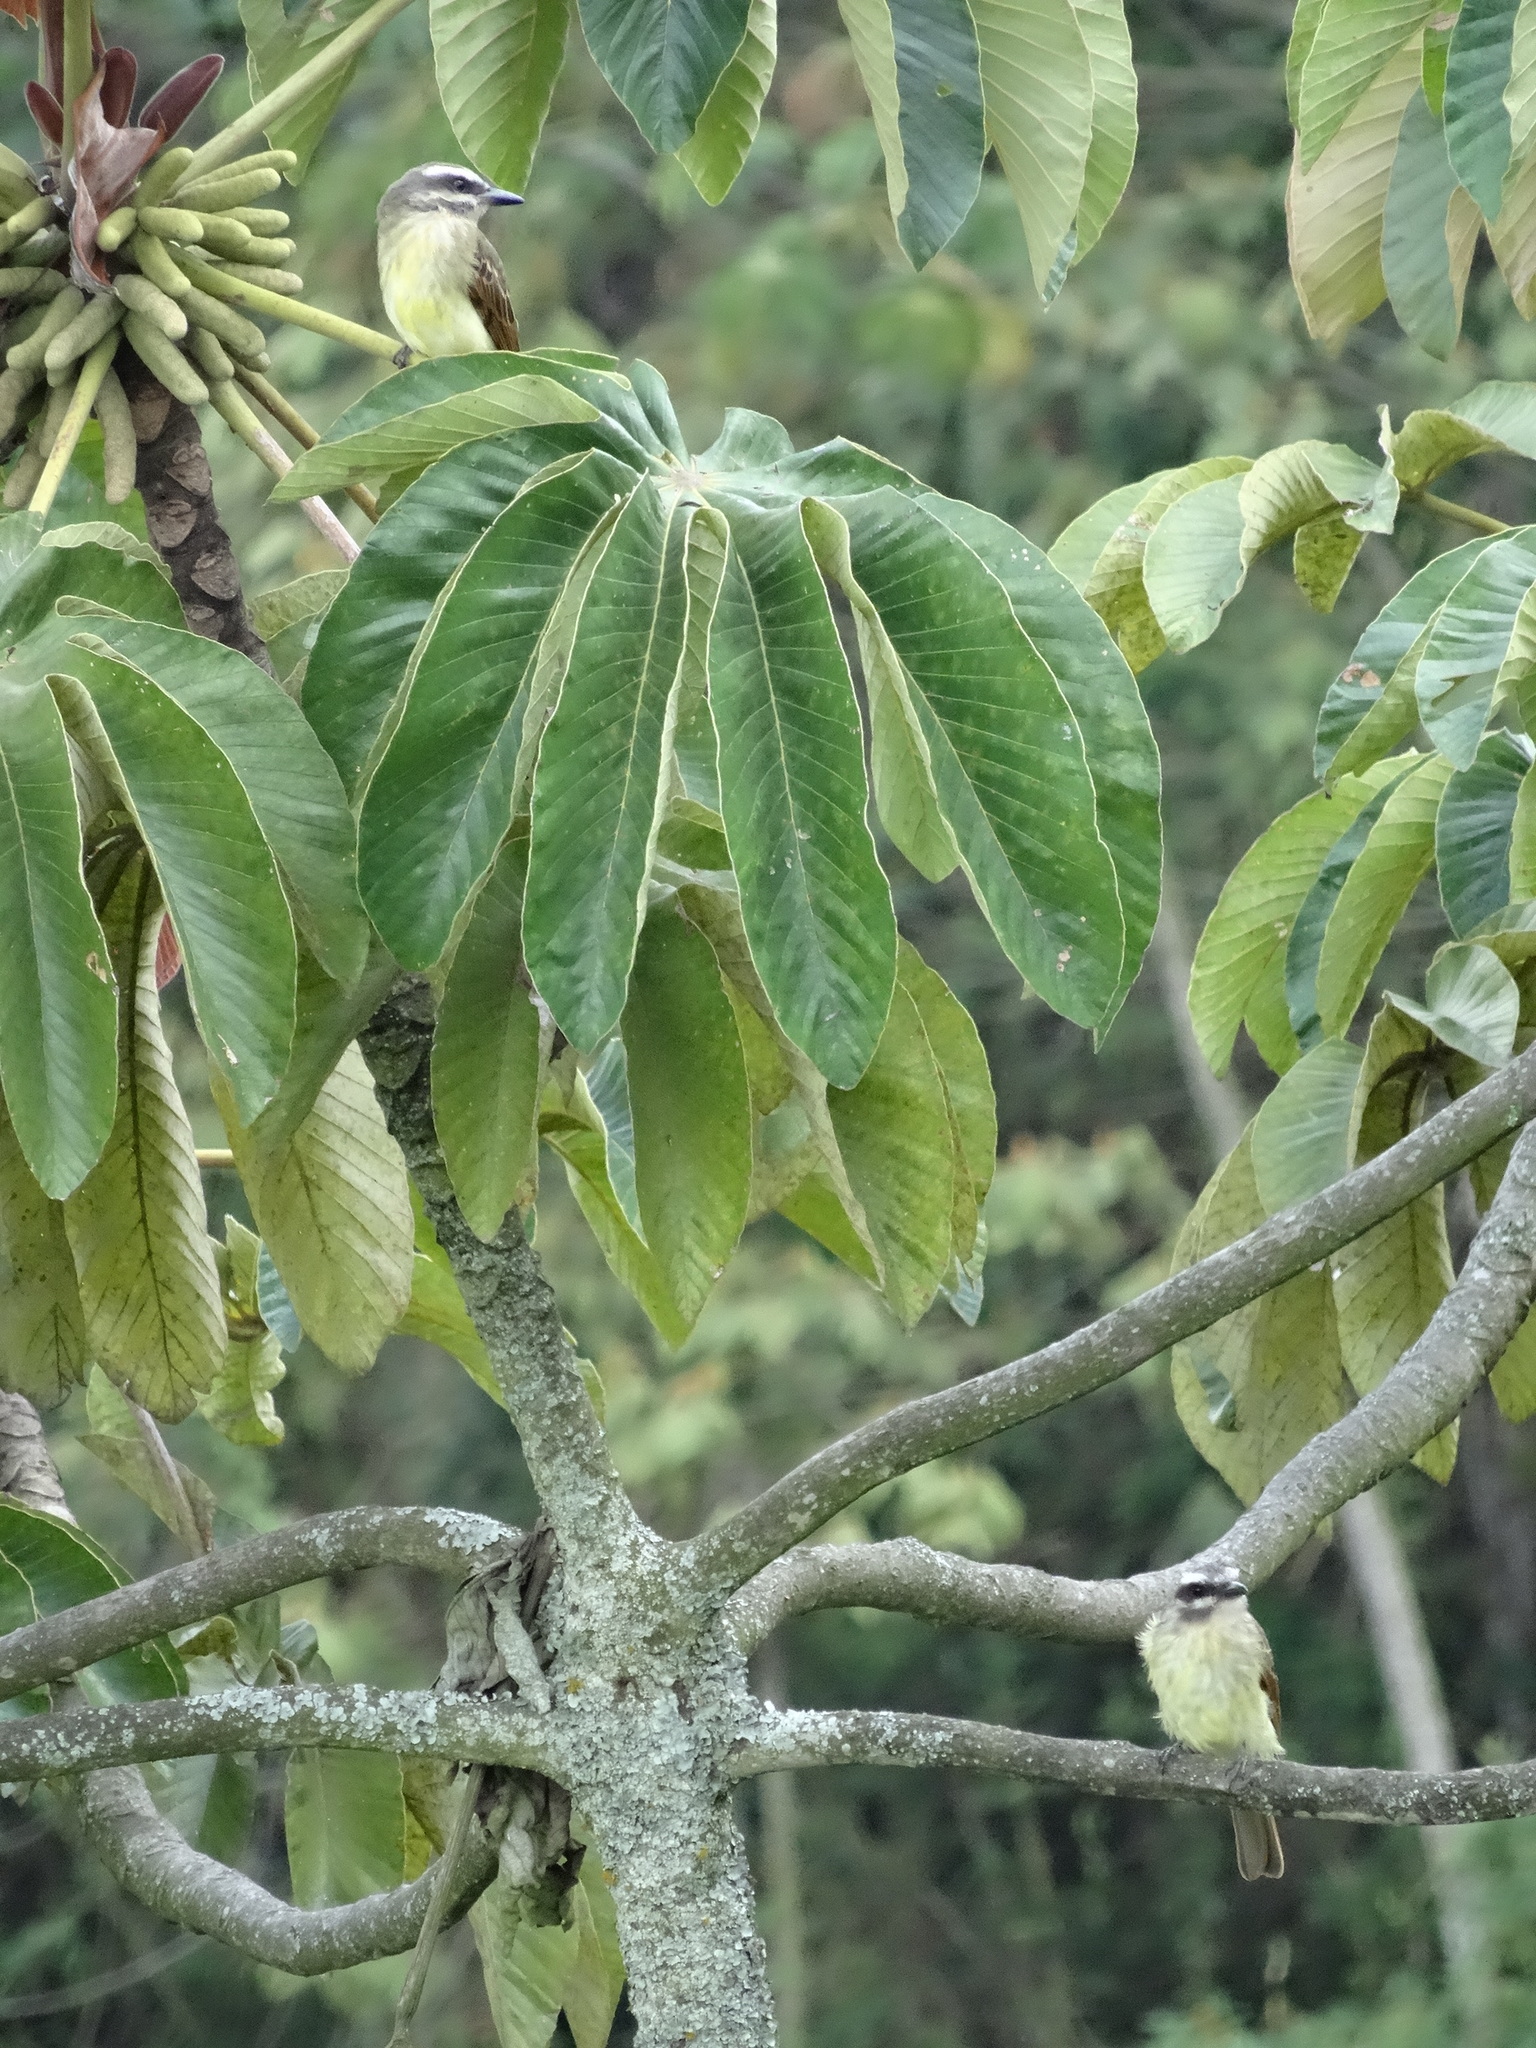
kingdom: Animalia
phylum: Chordata
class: Aves
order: Passeriformes
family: Tyrannidae
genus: Myiodynastes
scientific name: Myiodynastes hemichrysus
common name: Golden-bellied flycatcher
